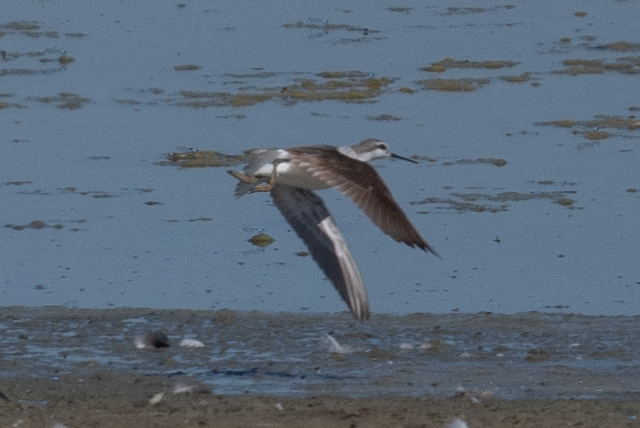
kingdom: Animalia
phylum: Chordata
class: Aves
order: Charadriiformes
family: Scolopacidae
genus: Phalaropus
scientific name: Phalaropus tricolor
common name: Wilson's phalarope
